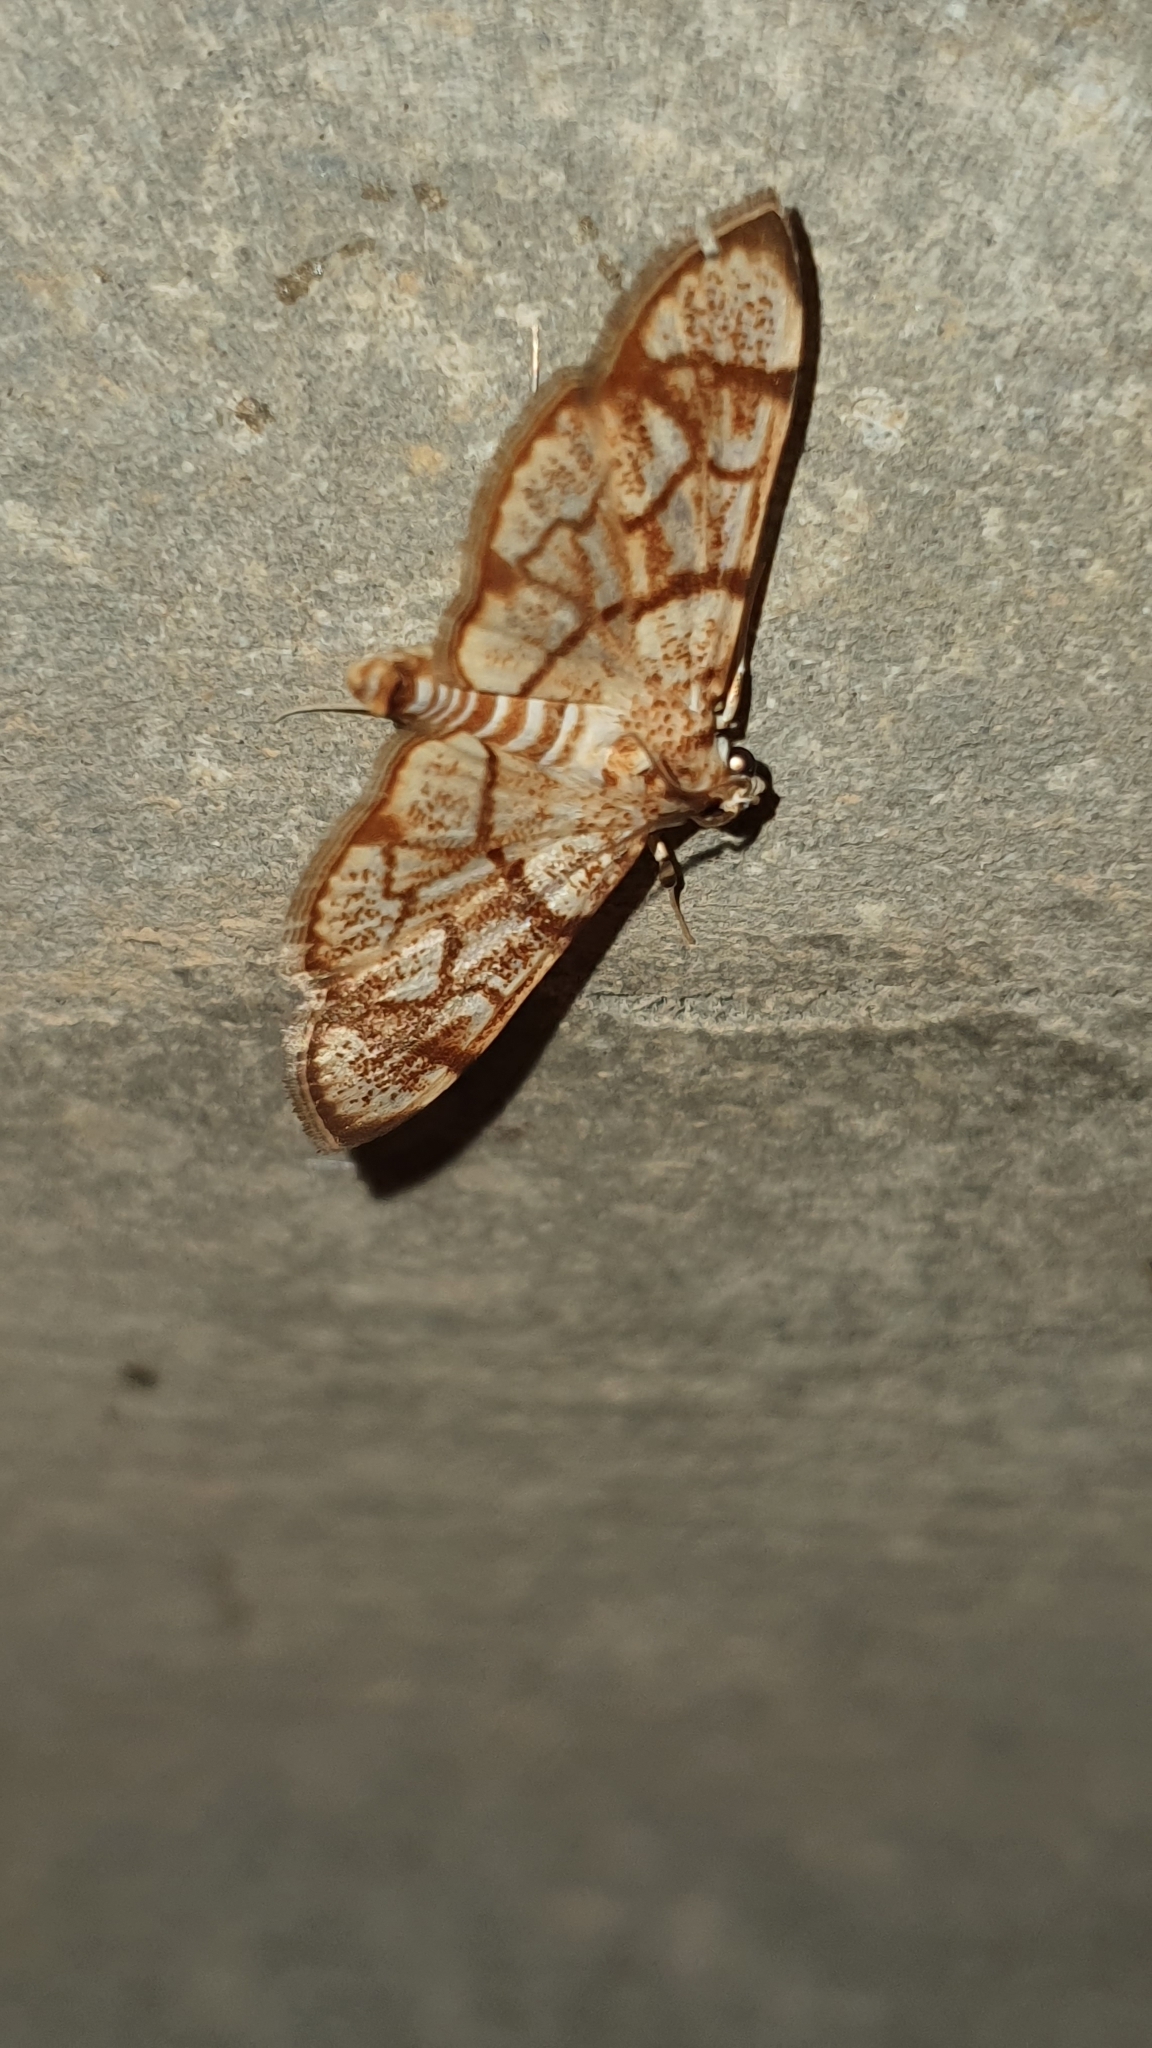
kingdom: Animalia
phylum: Arthropoda
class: Insecta
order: Lepidoptera
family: Crambidae
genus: Syllepte
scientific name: Syllepte straminalis
